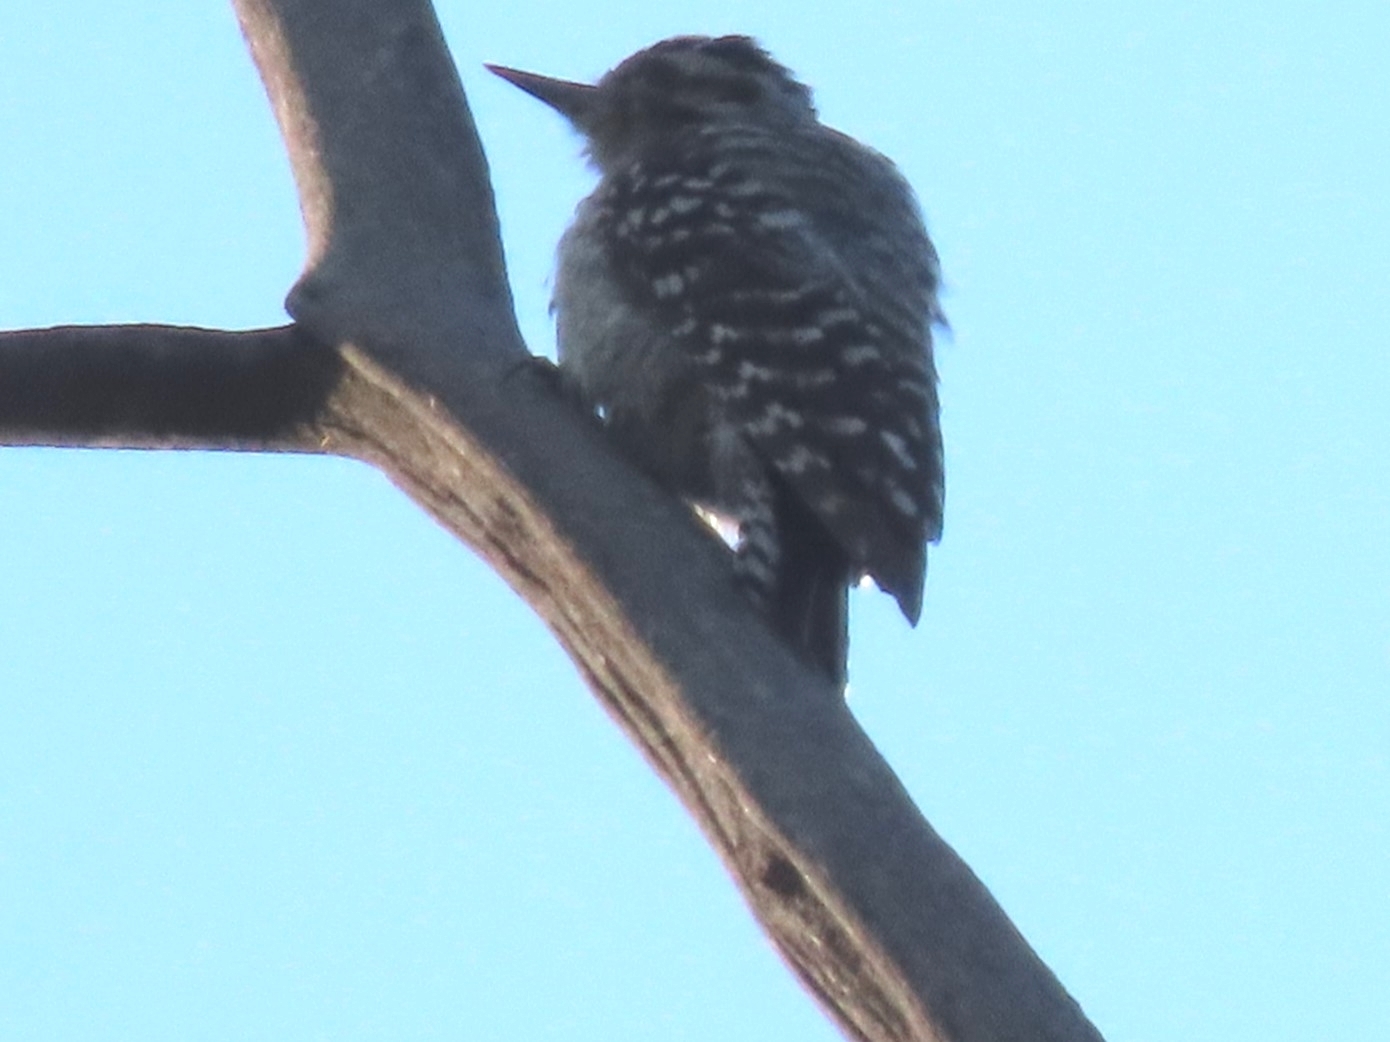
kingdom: Animalia
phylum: Chordata
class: Aves
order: Piciformes
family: Picidae
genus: Dryobates
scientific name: Dryobates scalaris
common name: Ladder-backed woodpecker
